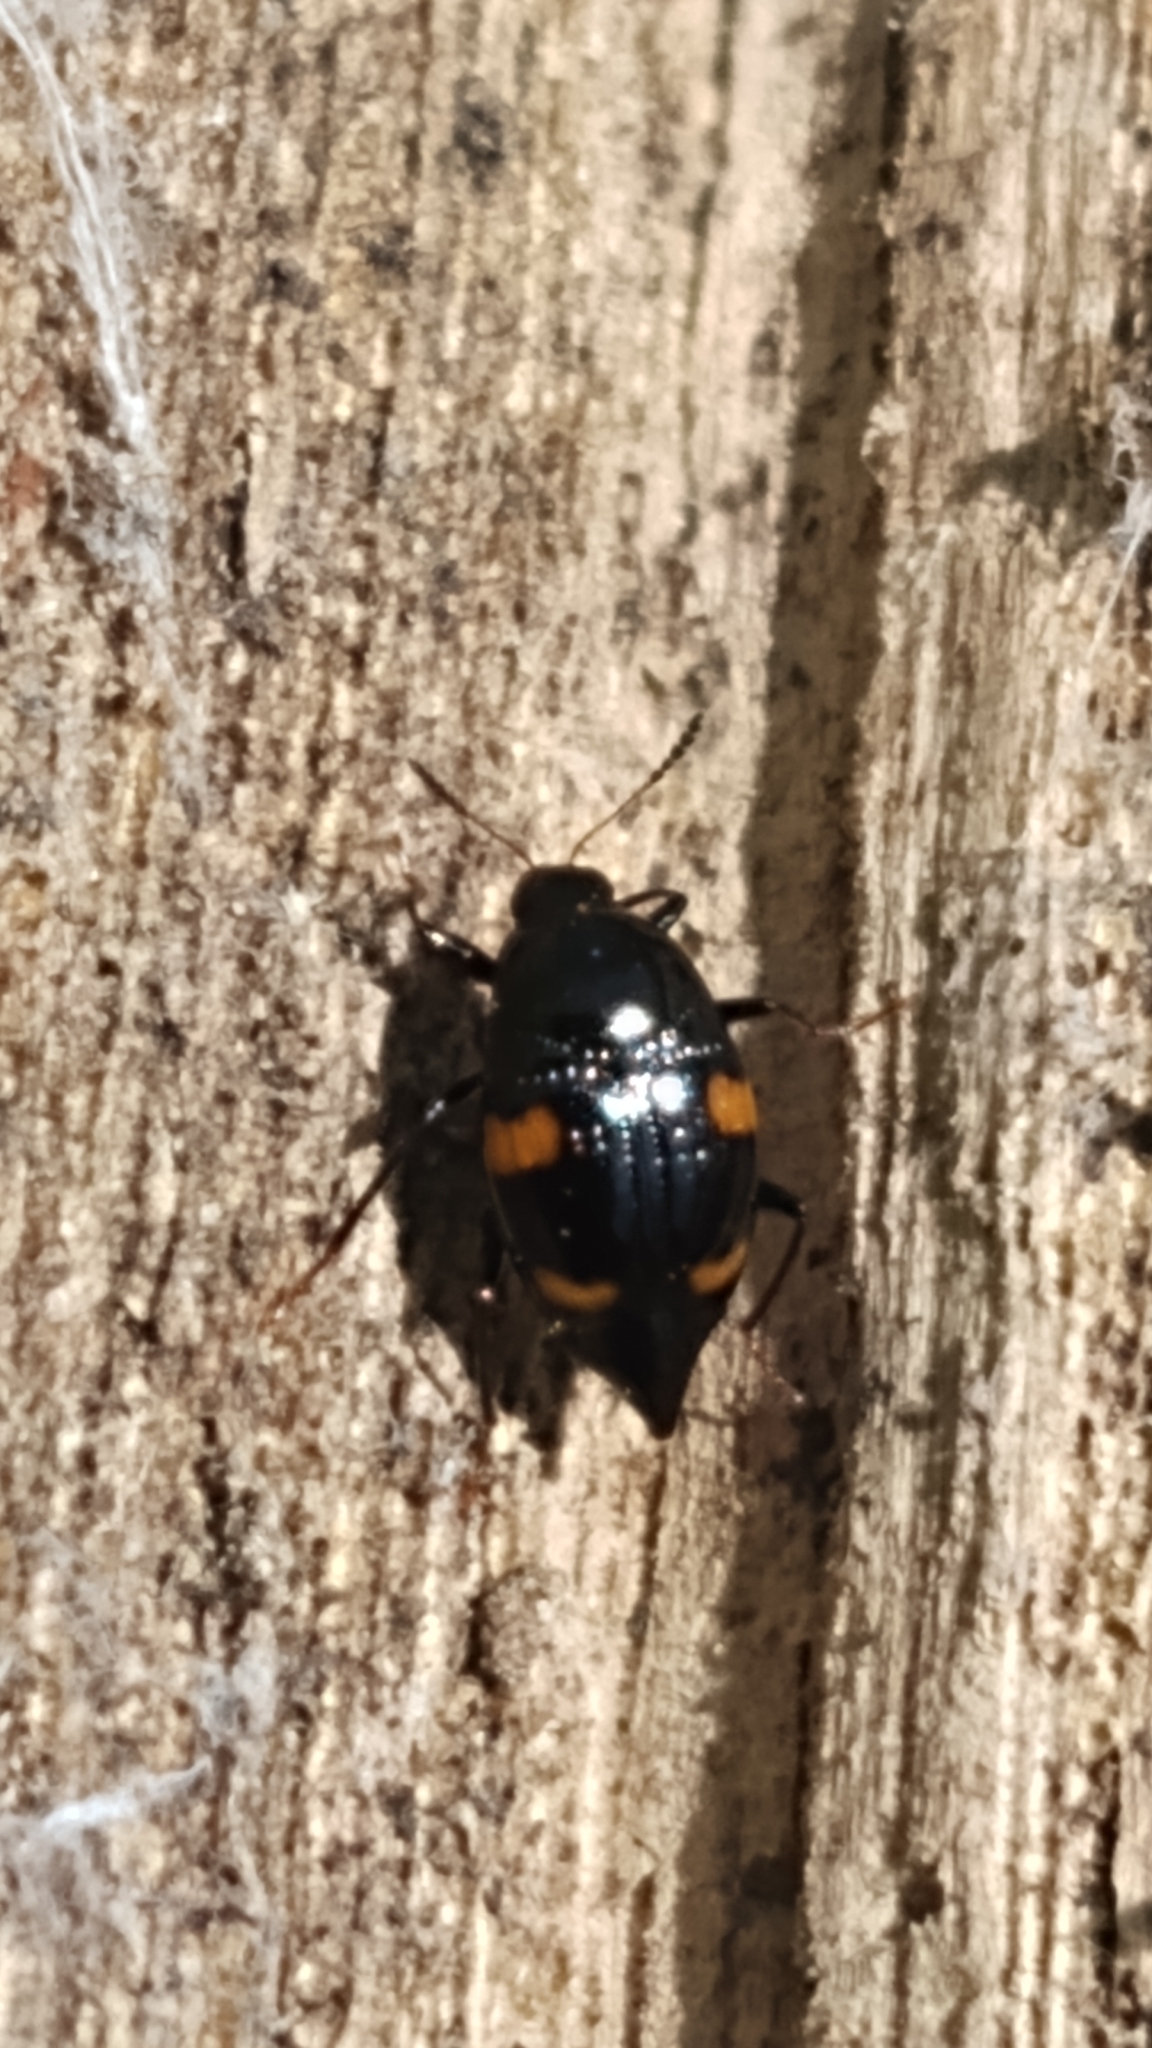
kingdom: Animalia
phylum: Arthropoda
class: Insecta
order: Coleoptera
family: Staphylinidae
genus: Scaphidium
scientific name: Scaphidium quadriguttatum
